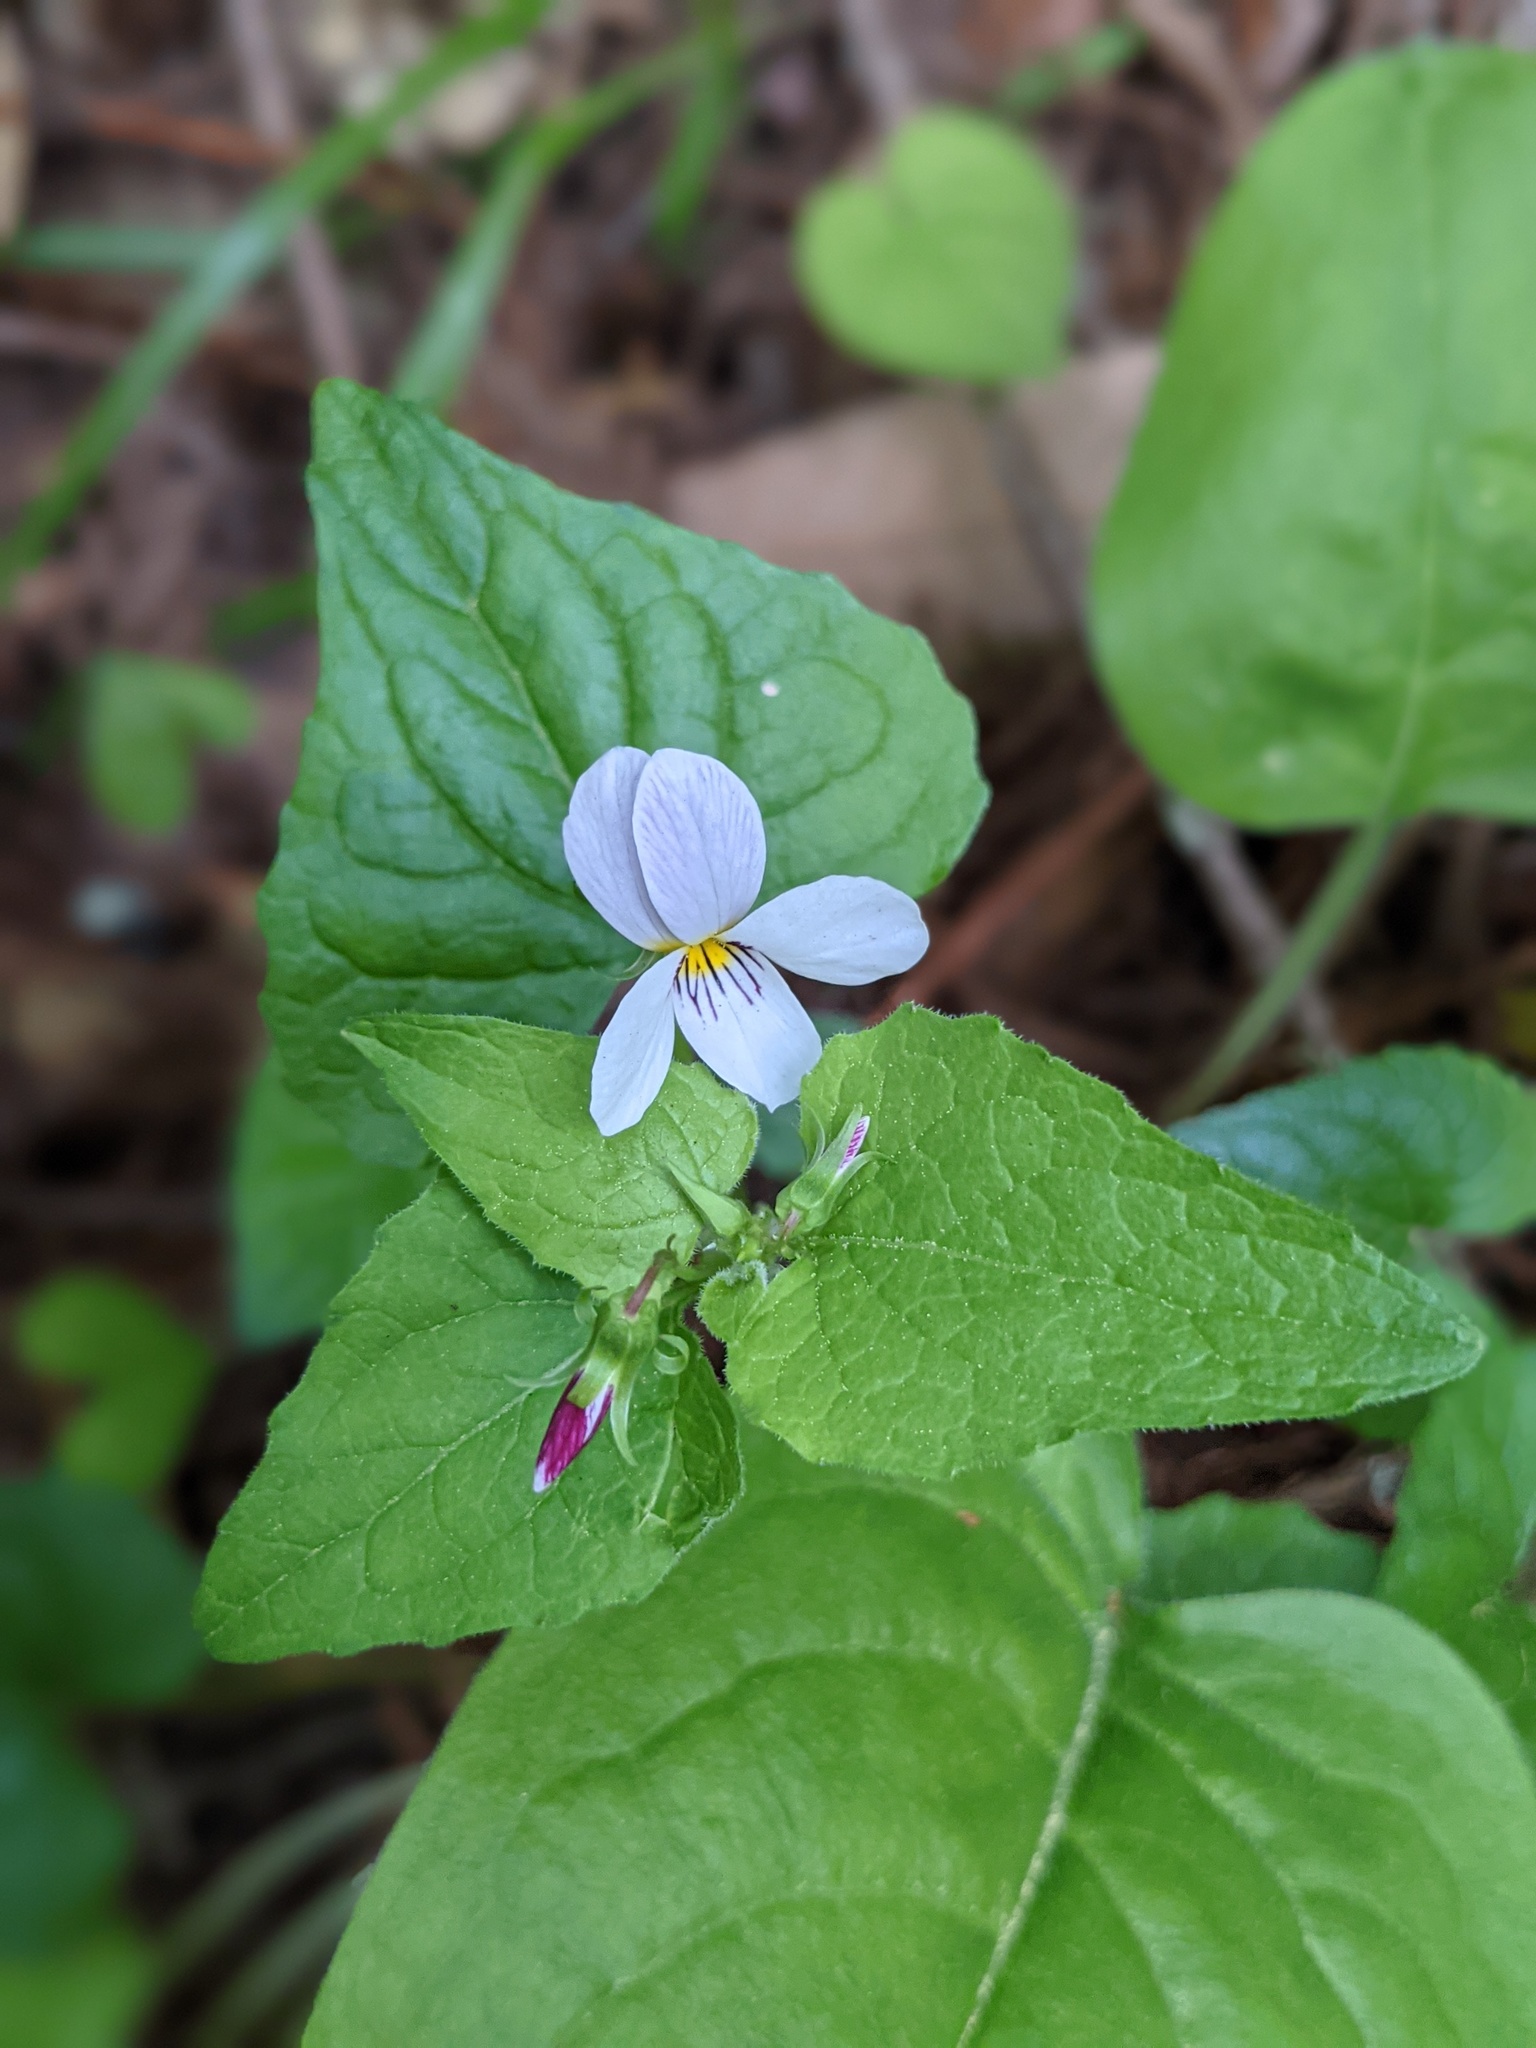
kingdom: Plantae
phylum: Tracheophyta
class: Magnoliopsida
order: Malpighiales
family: Violaceae
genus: Viola
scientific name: Viola ocellata
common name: Western heart's ease
